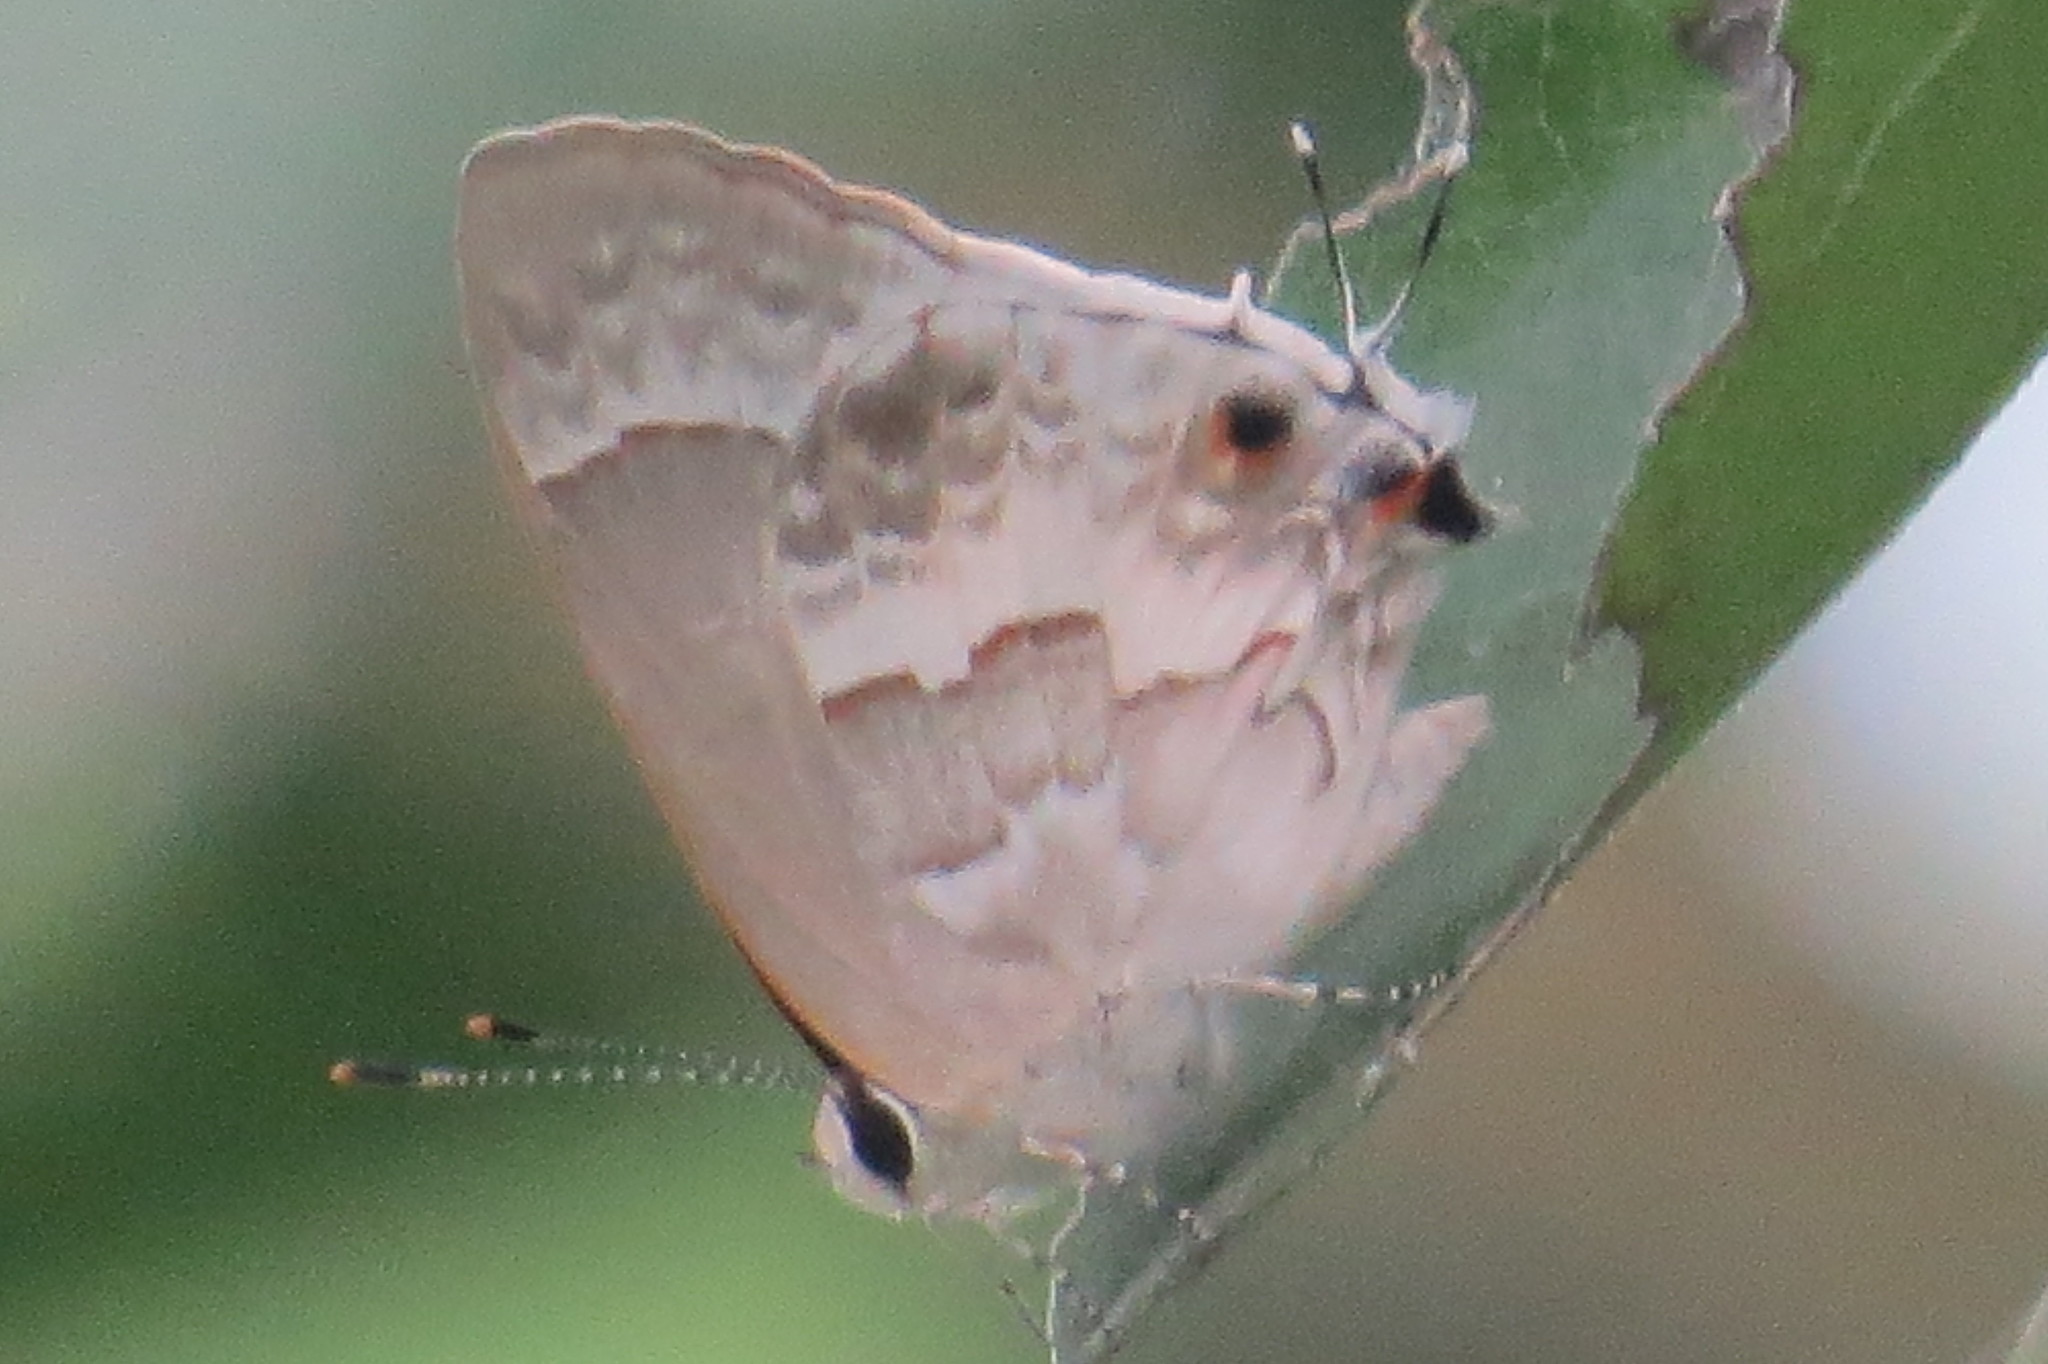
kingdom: Animalia
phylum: Arthropoda
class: Insecta
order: Lepidoptera
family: Lycaenidae
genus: Strymon
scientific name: Strymon albata
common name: White scrub-hairstreak
